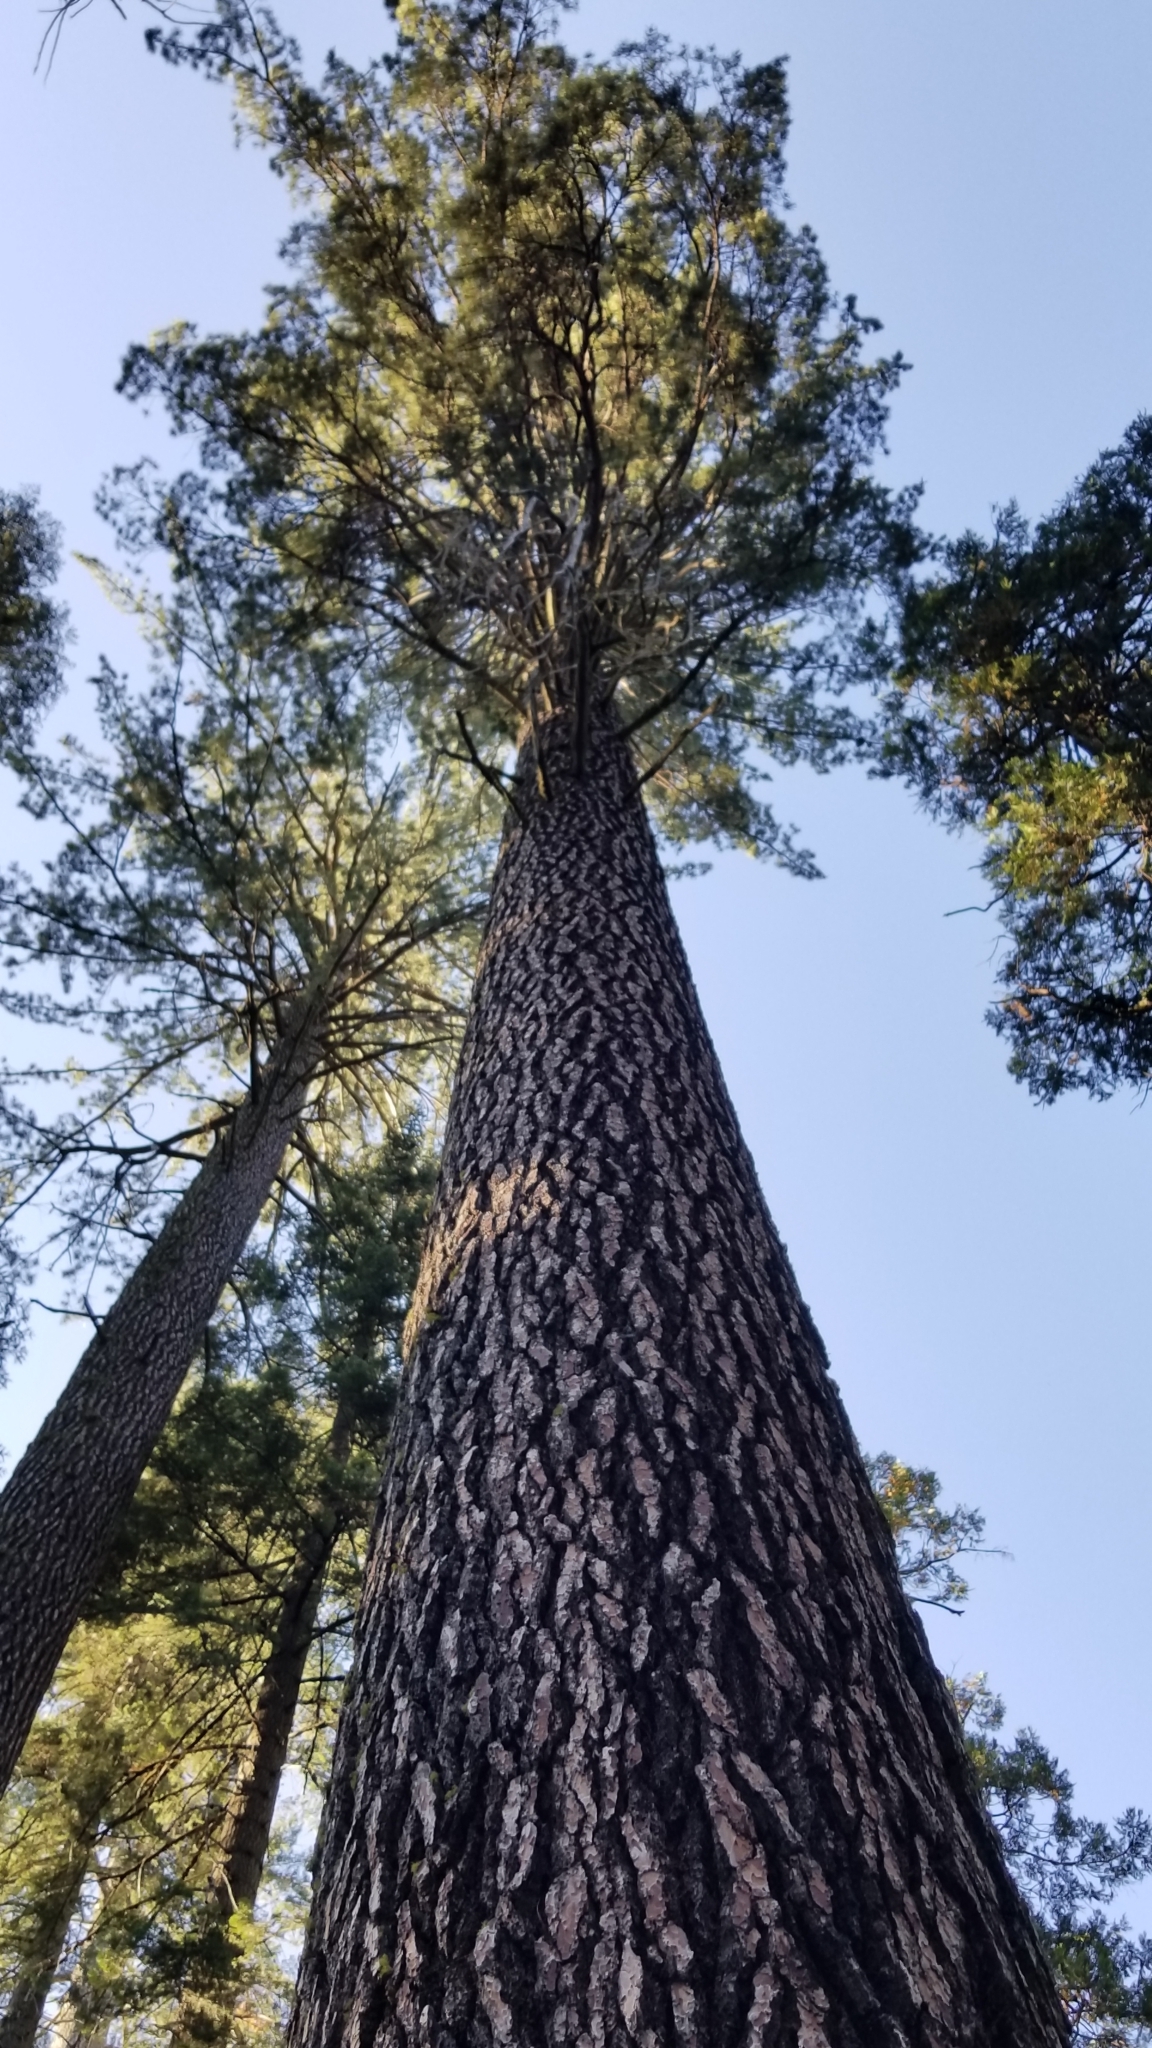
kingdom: Plantae
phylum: Tracheophyta
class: Pinopsida
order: Pinales
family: Pinaceae
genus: Pinus
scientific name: Pinus ponderosa
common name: Western yellow-pine
